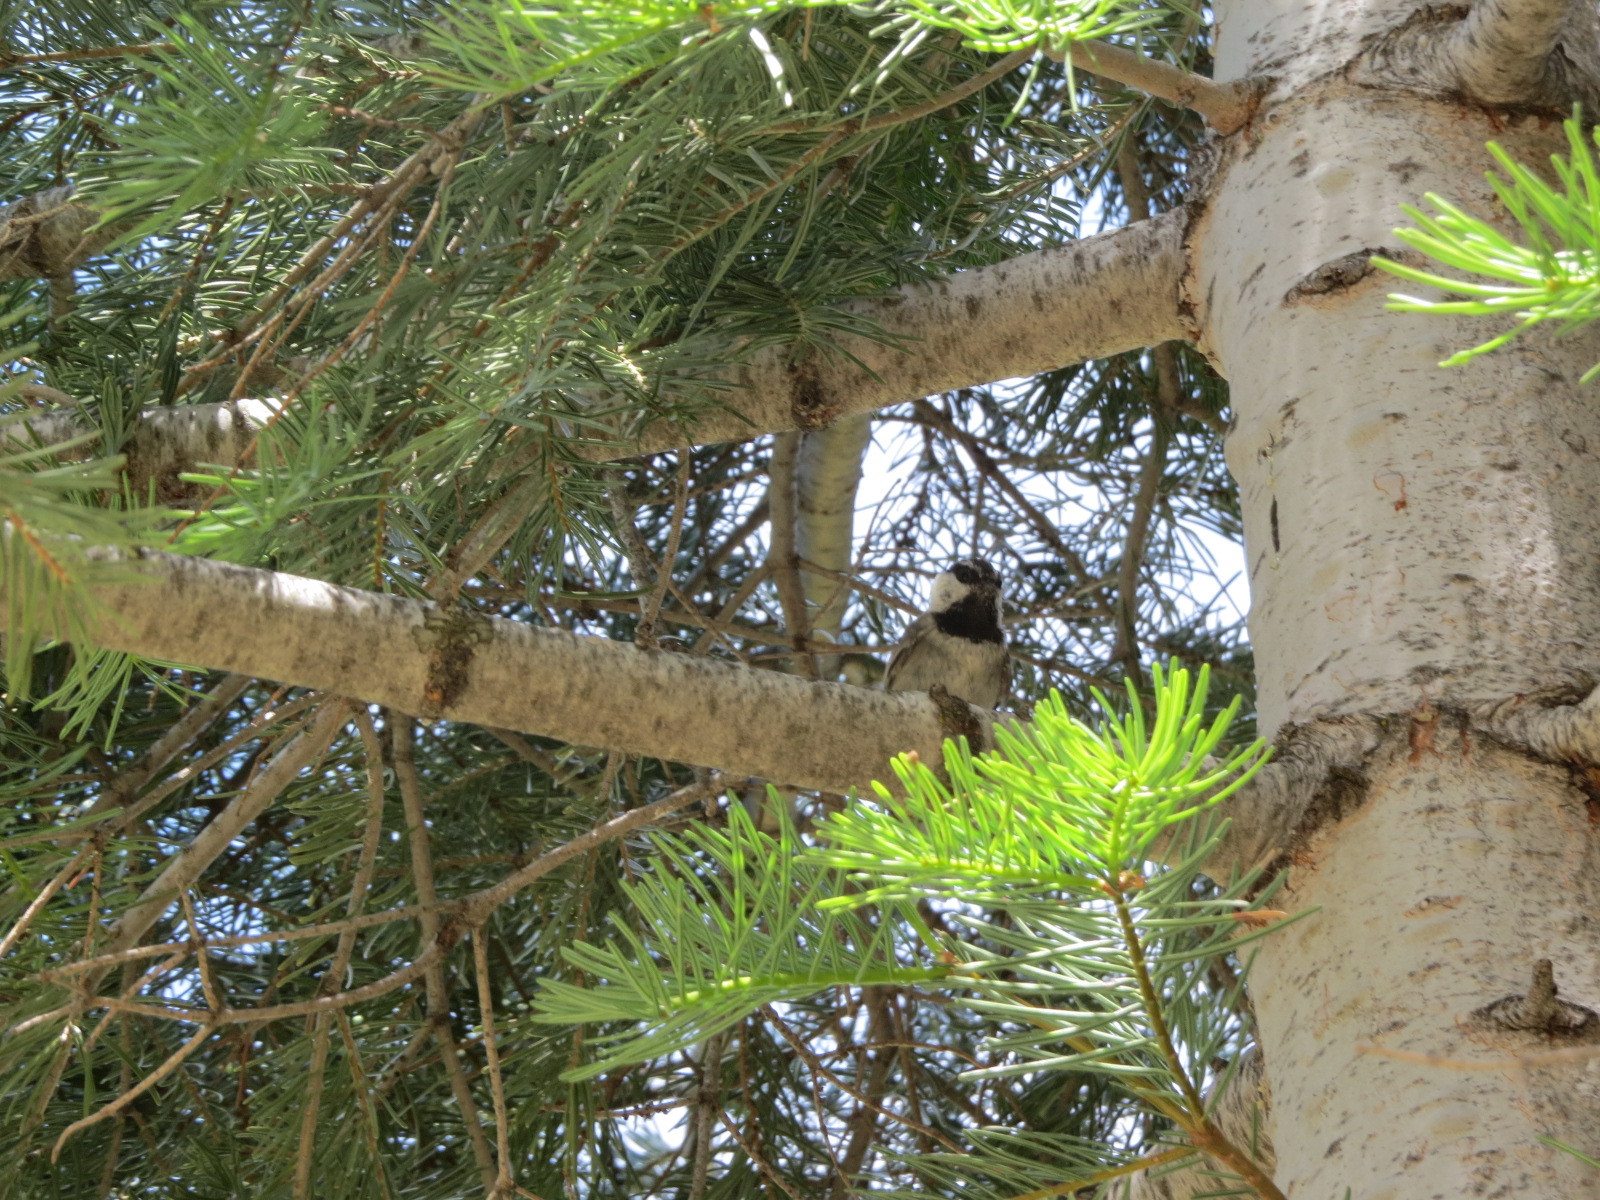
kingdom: Animalia
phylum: Chordata
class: Aves
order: Passeriformes
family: Paridae
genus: Poecile
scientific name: Poecile gambeli
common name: Mountain chickadee
